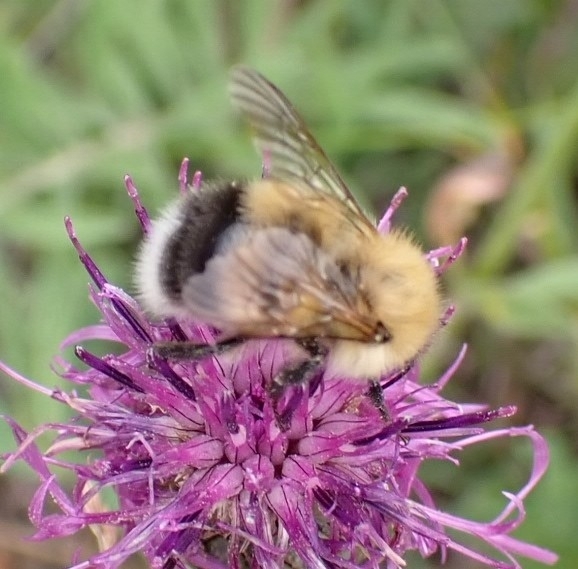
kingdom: Animalia
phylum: Arthropoda
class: Insecta
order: Hymenoptera
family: Apidae
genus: Bombus
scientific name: Bombus hypnorum
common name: New garden bumblebee
